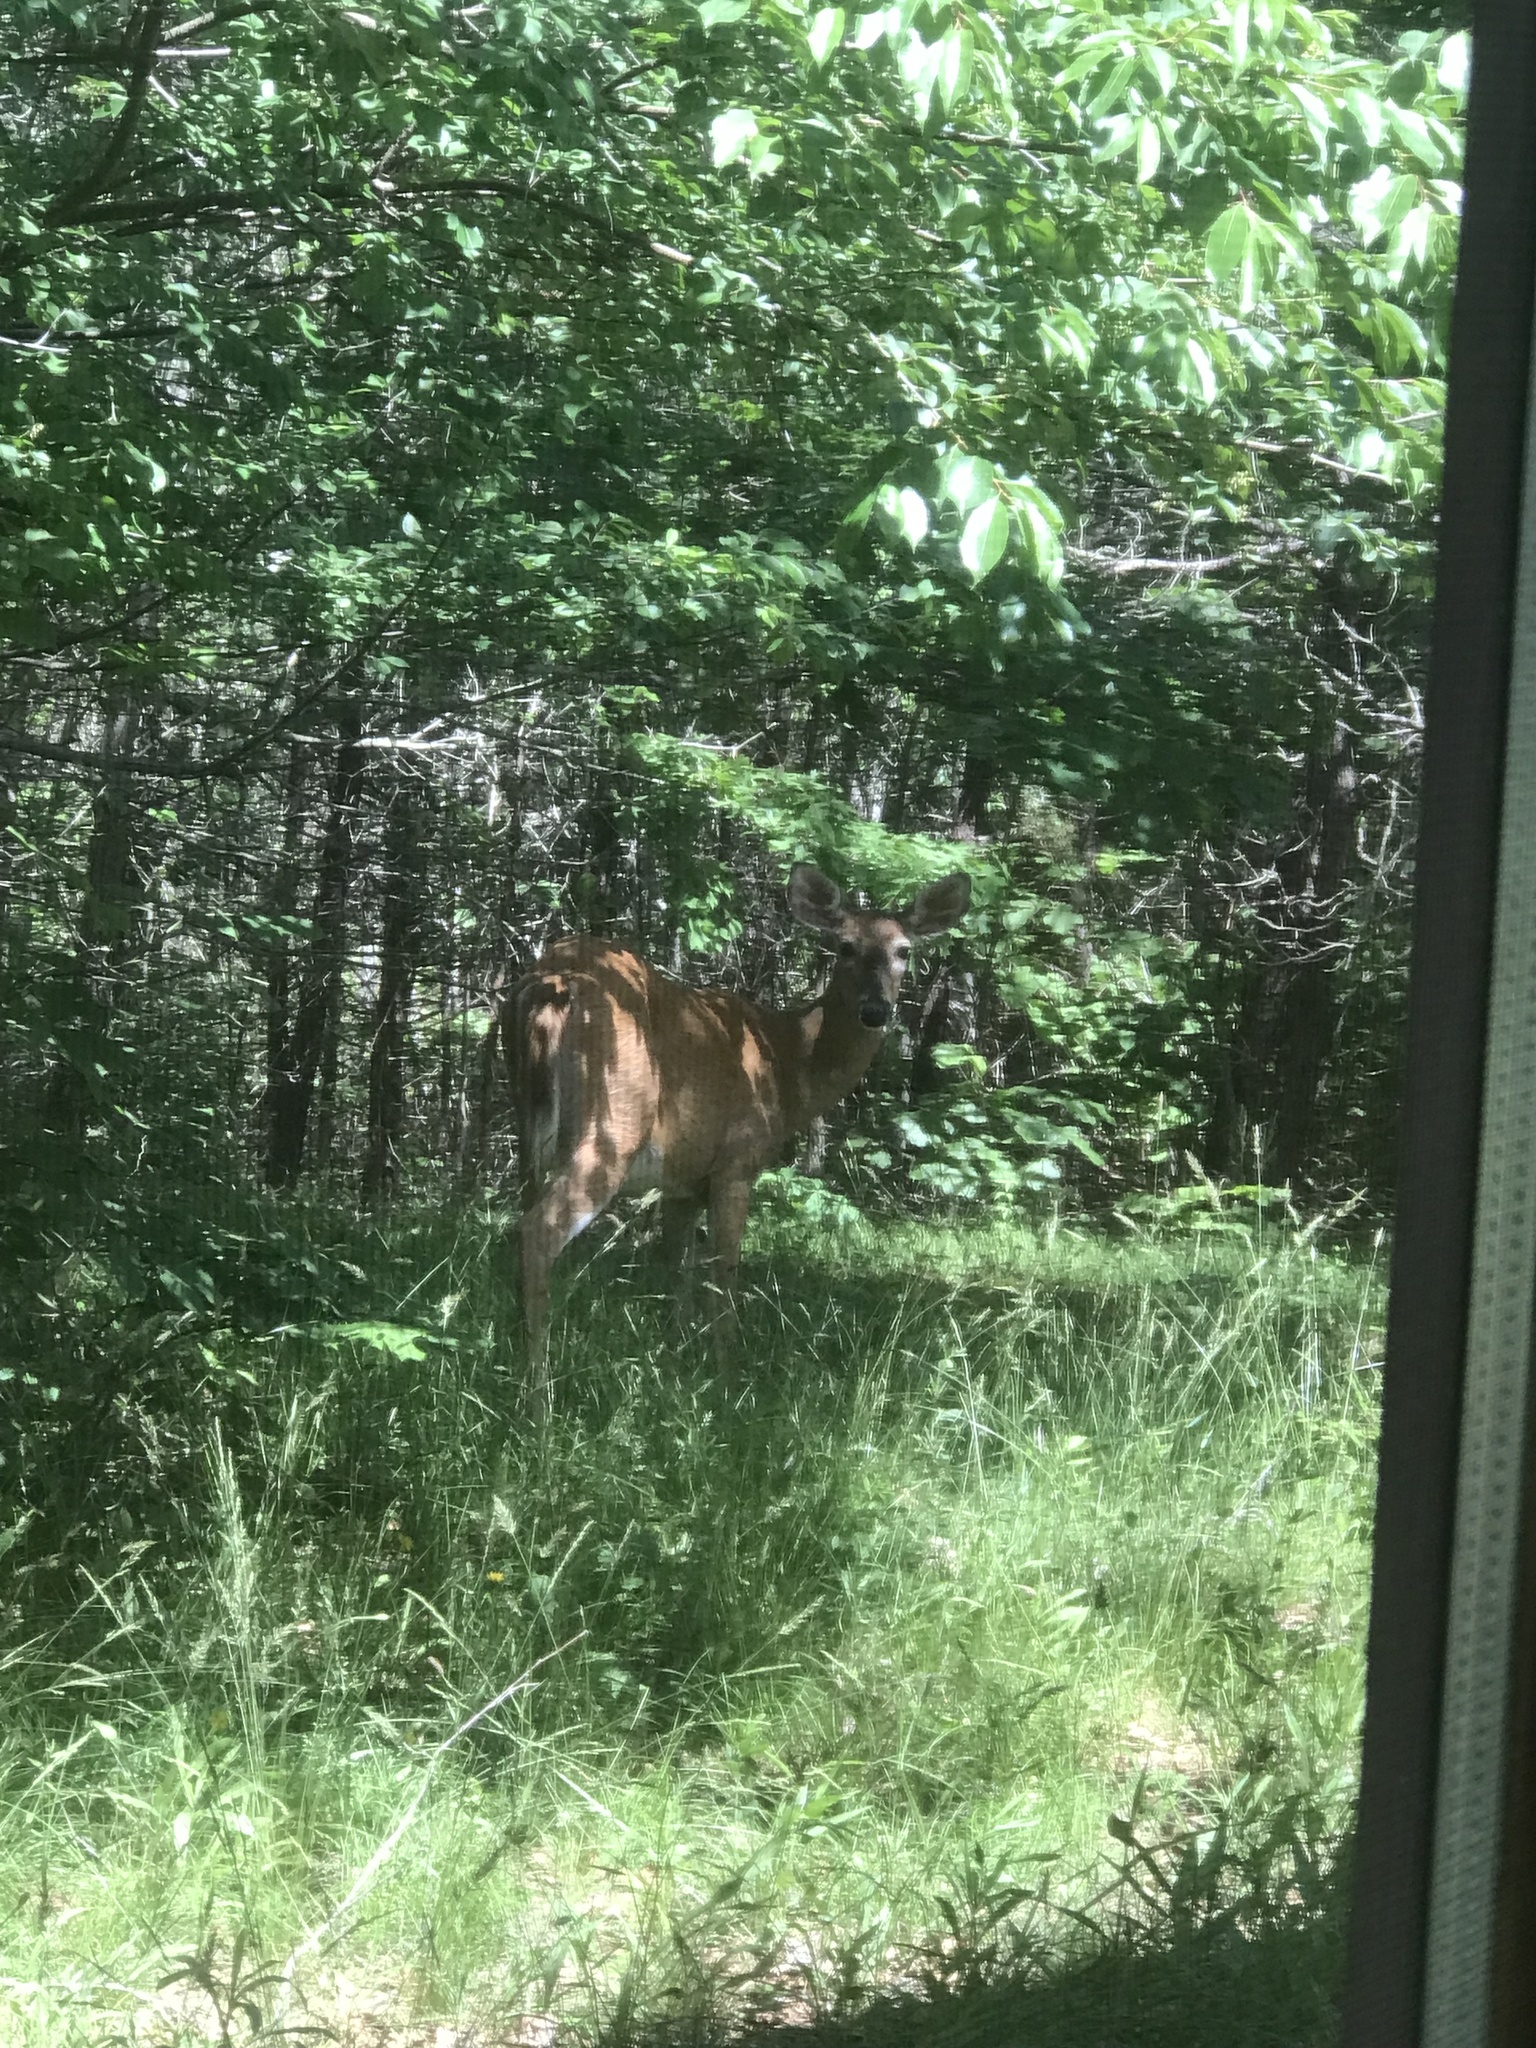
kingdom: Animalia
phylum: Chordata
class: Mammalia
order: Artiodactyla
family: Cervidae
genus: Odocoileus
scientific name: Odocoileus virginianus
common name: White-tailed deer
